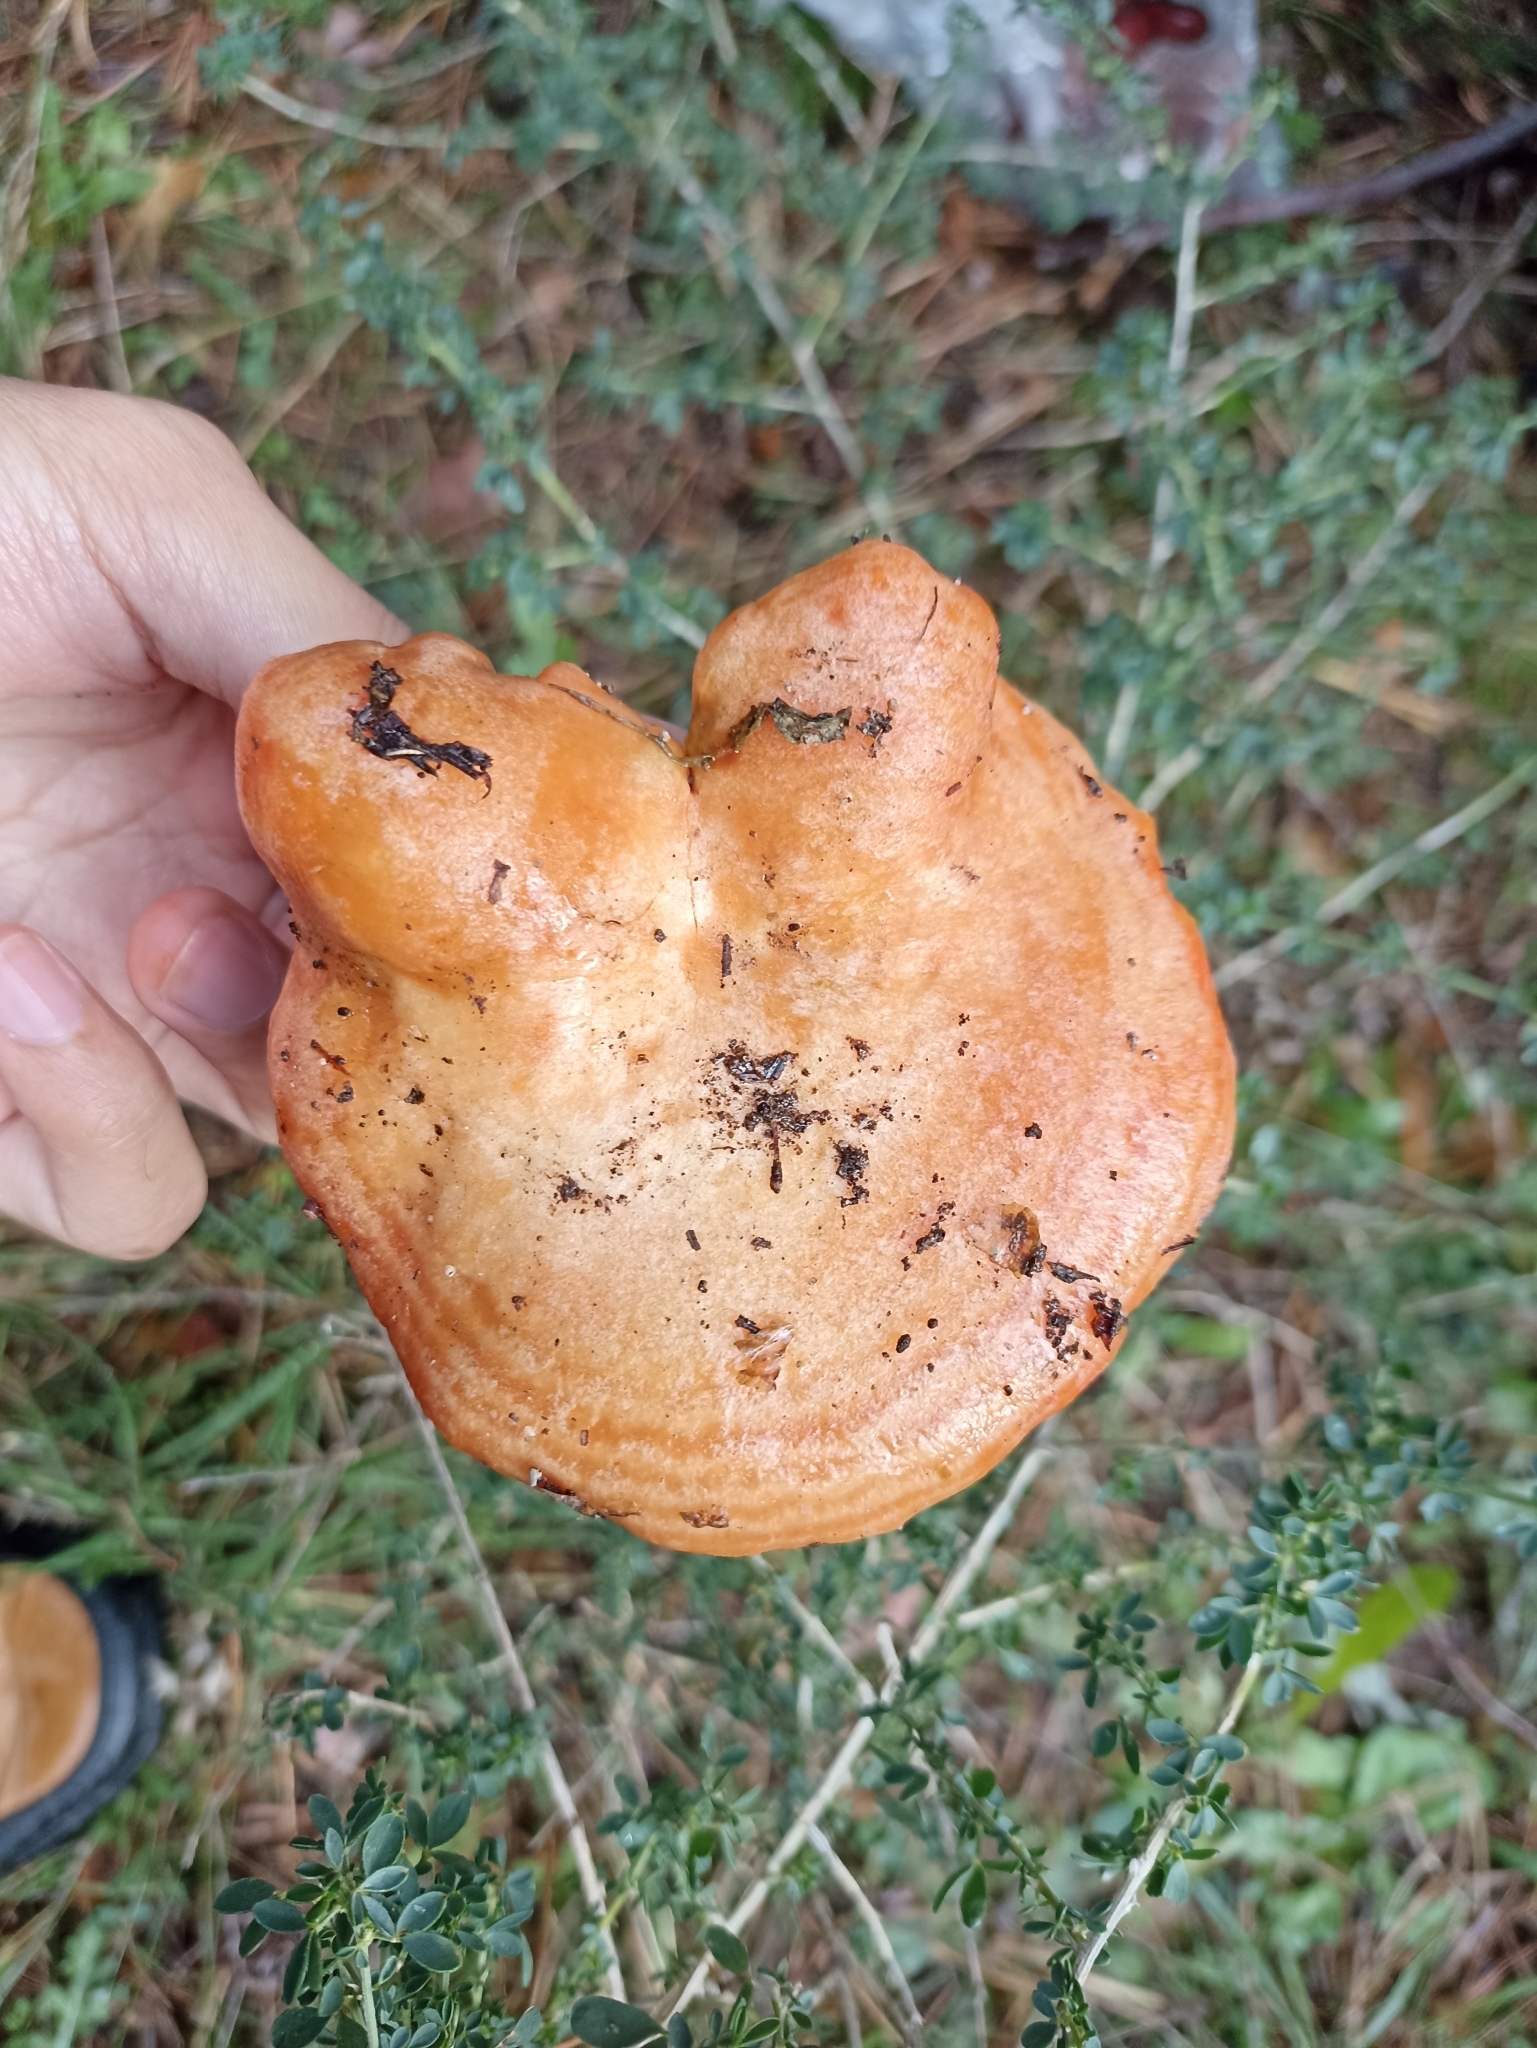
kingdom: Fungi
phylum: Basidiomycota
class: Agaricomycetes
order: Russulales
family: Russulaceae
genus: Lactarius
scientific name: Lactarius deliciosus
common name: Saffron milk-cap
